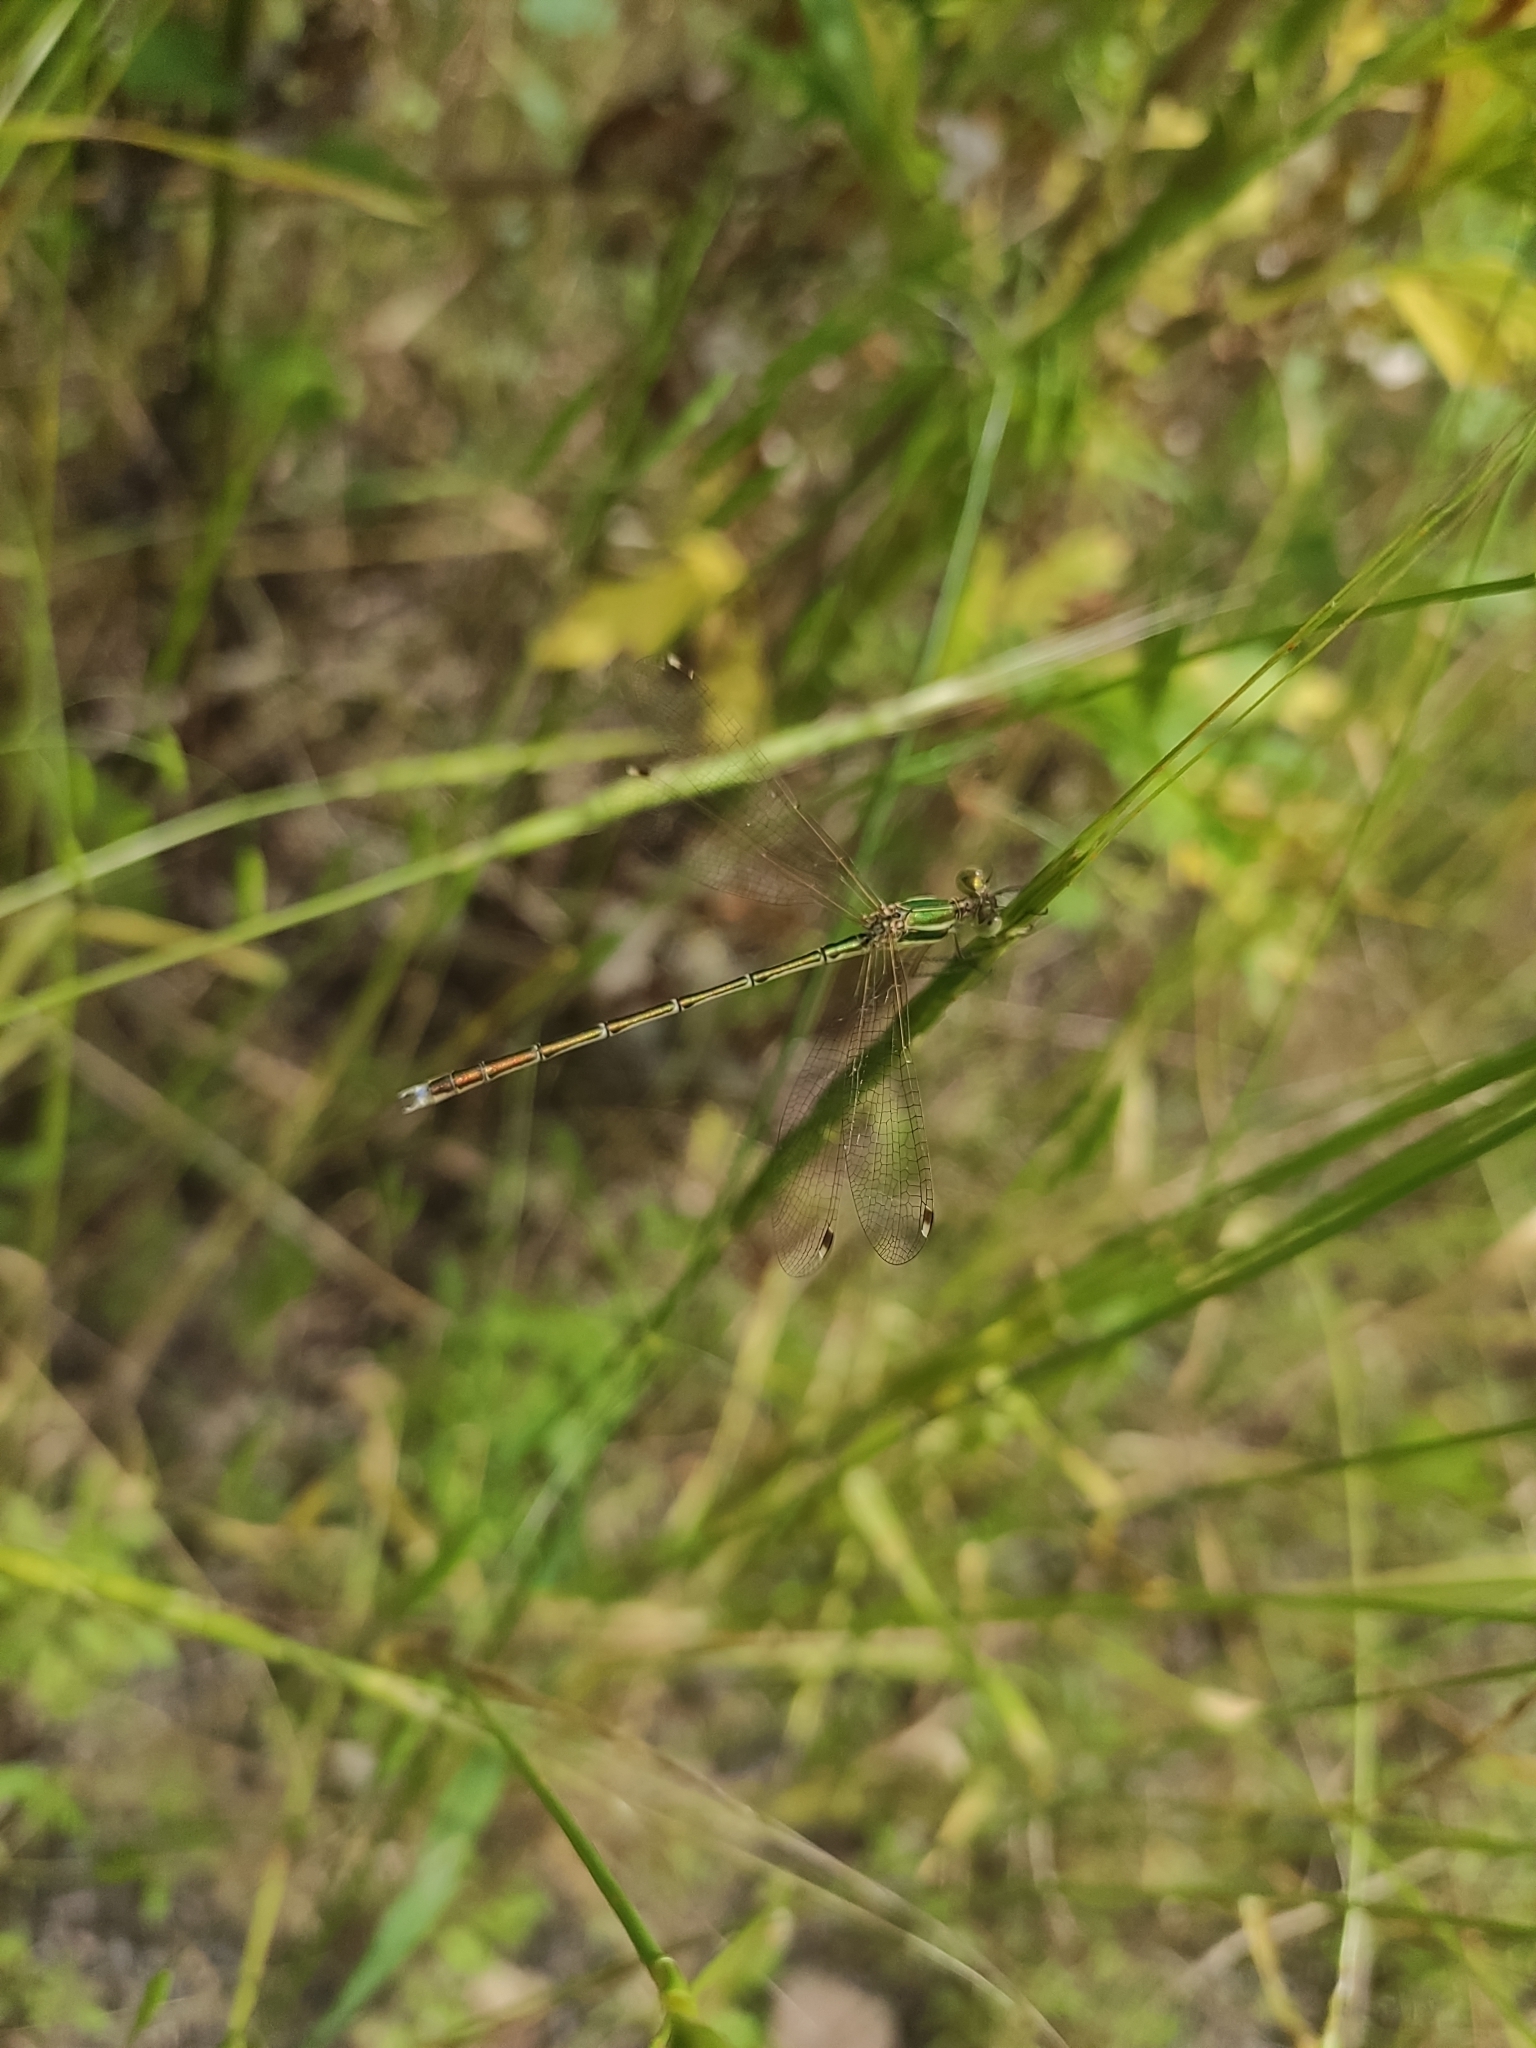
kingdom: Animalia
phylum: Arthropoda
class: Insecta
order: Odonata
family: Lestidae
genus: Lestes
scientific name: Lestes barbarus
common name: Migrant spreadwing
